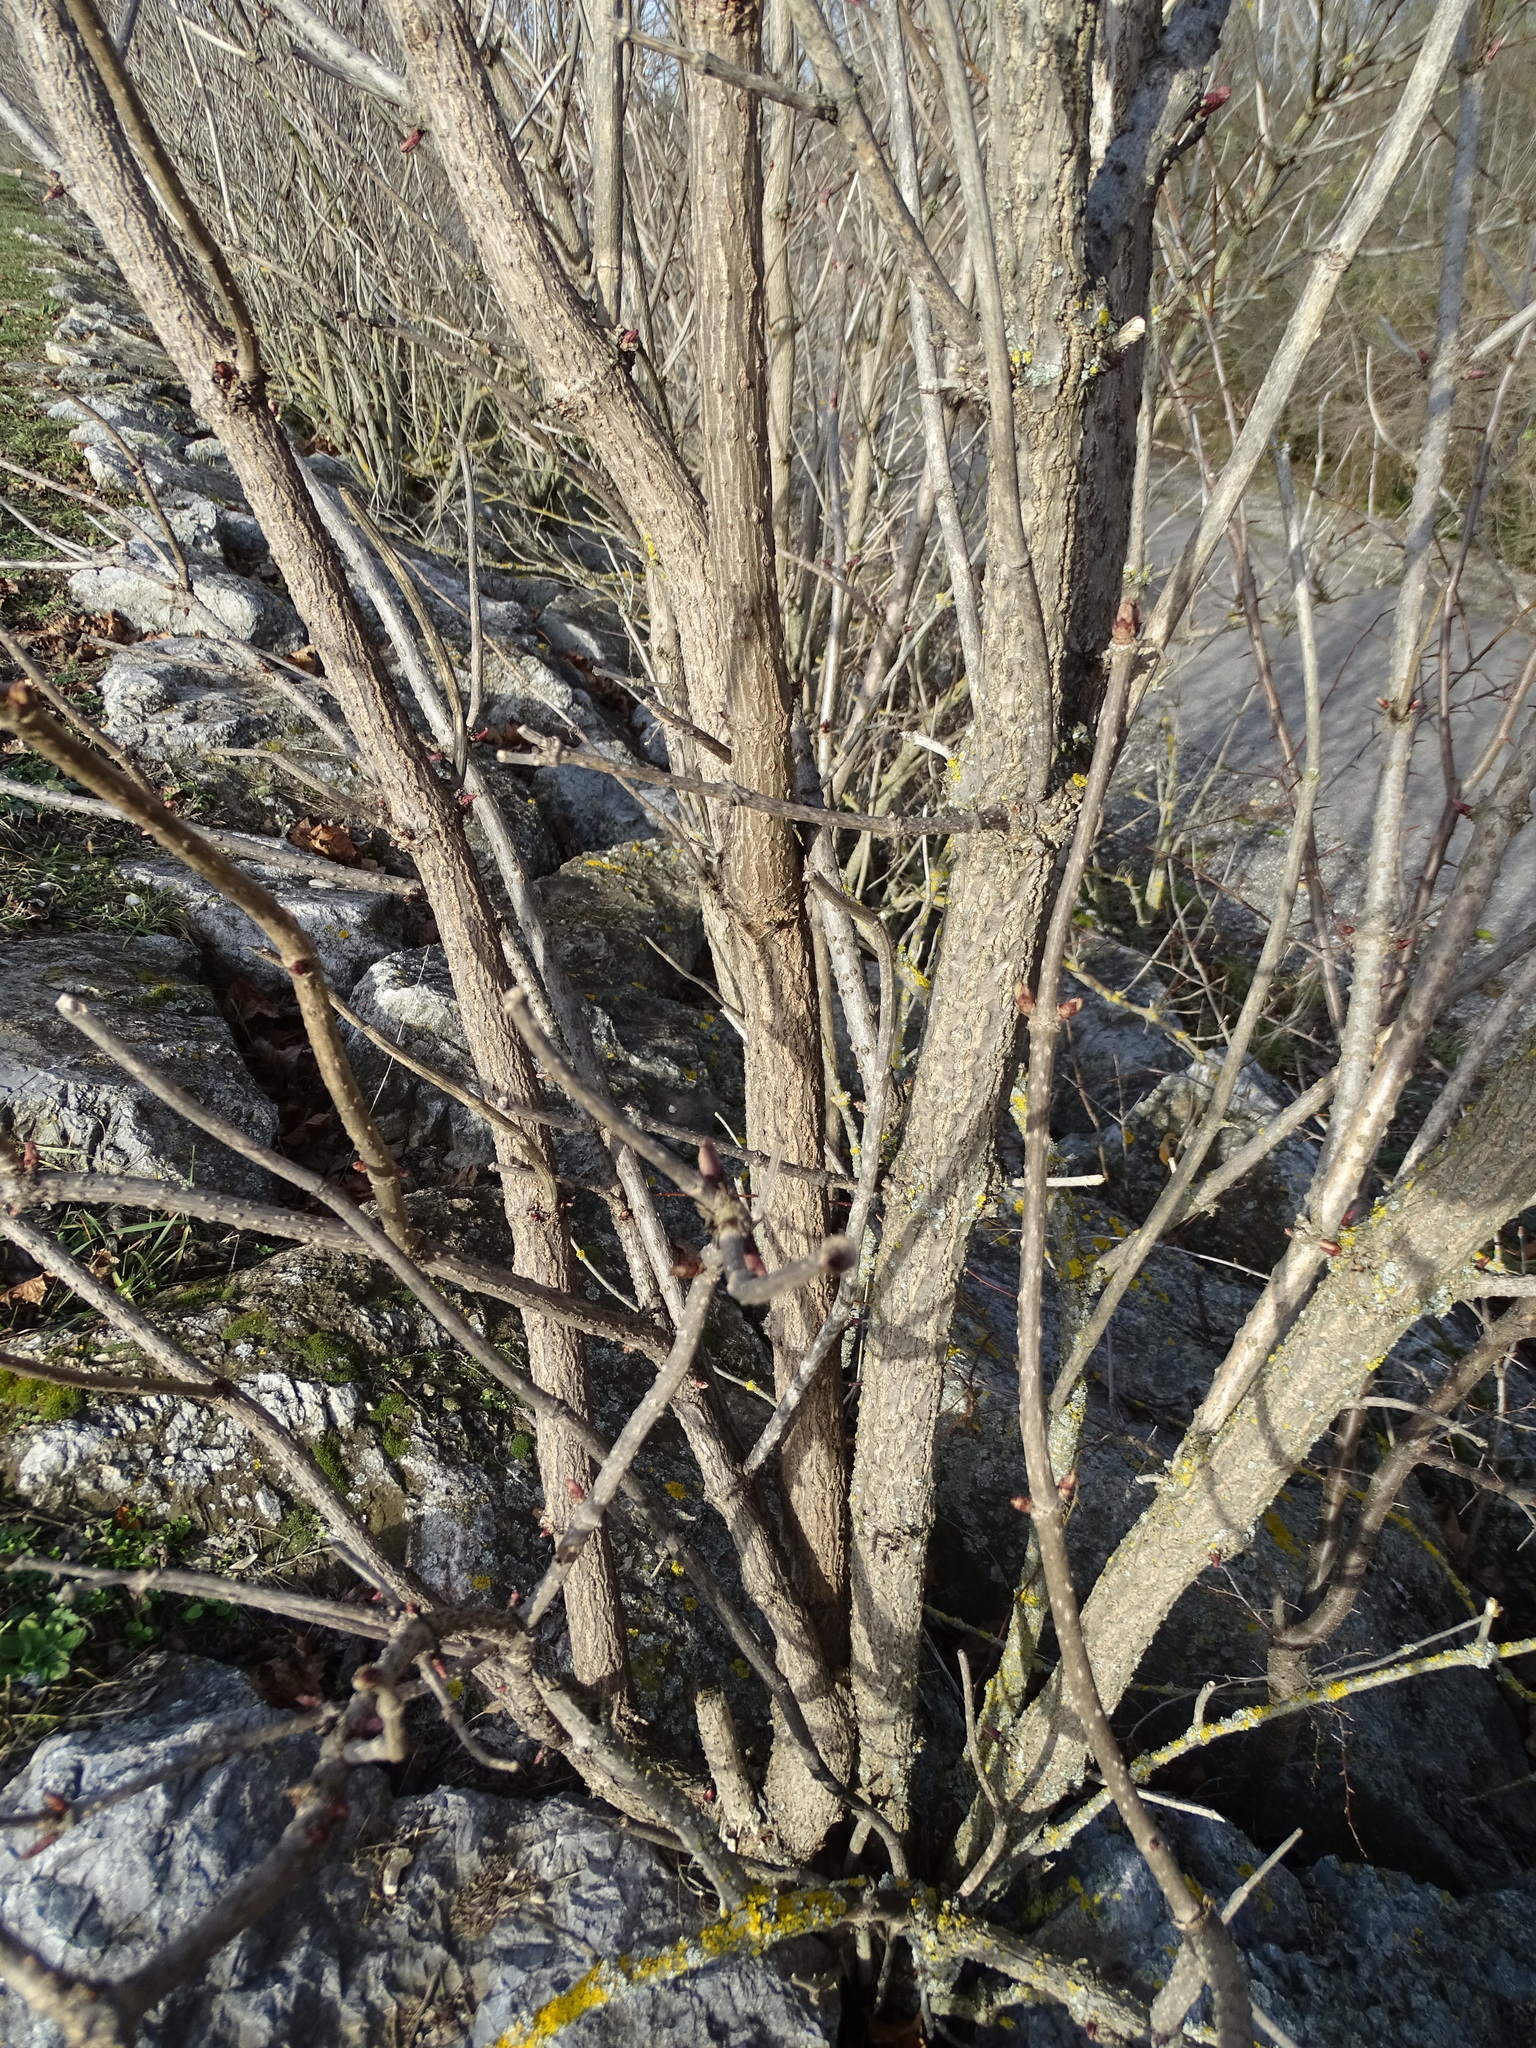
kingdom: Plantae
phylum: Tracheophyta
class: Magnoliopsida
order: Dipsacales
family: Viburnaceae
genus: Sambucus
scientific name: Sambucus nigra
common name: Elder
